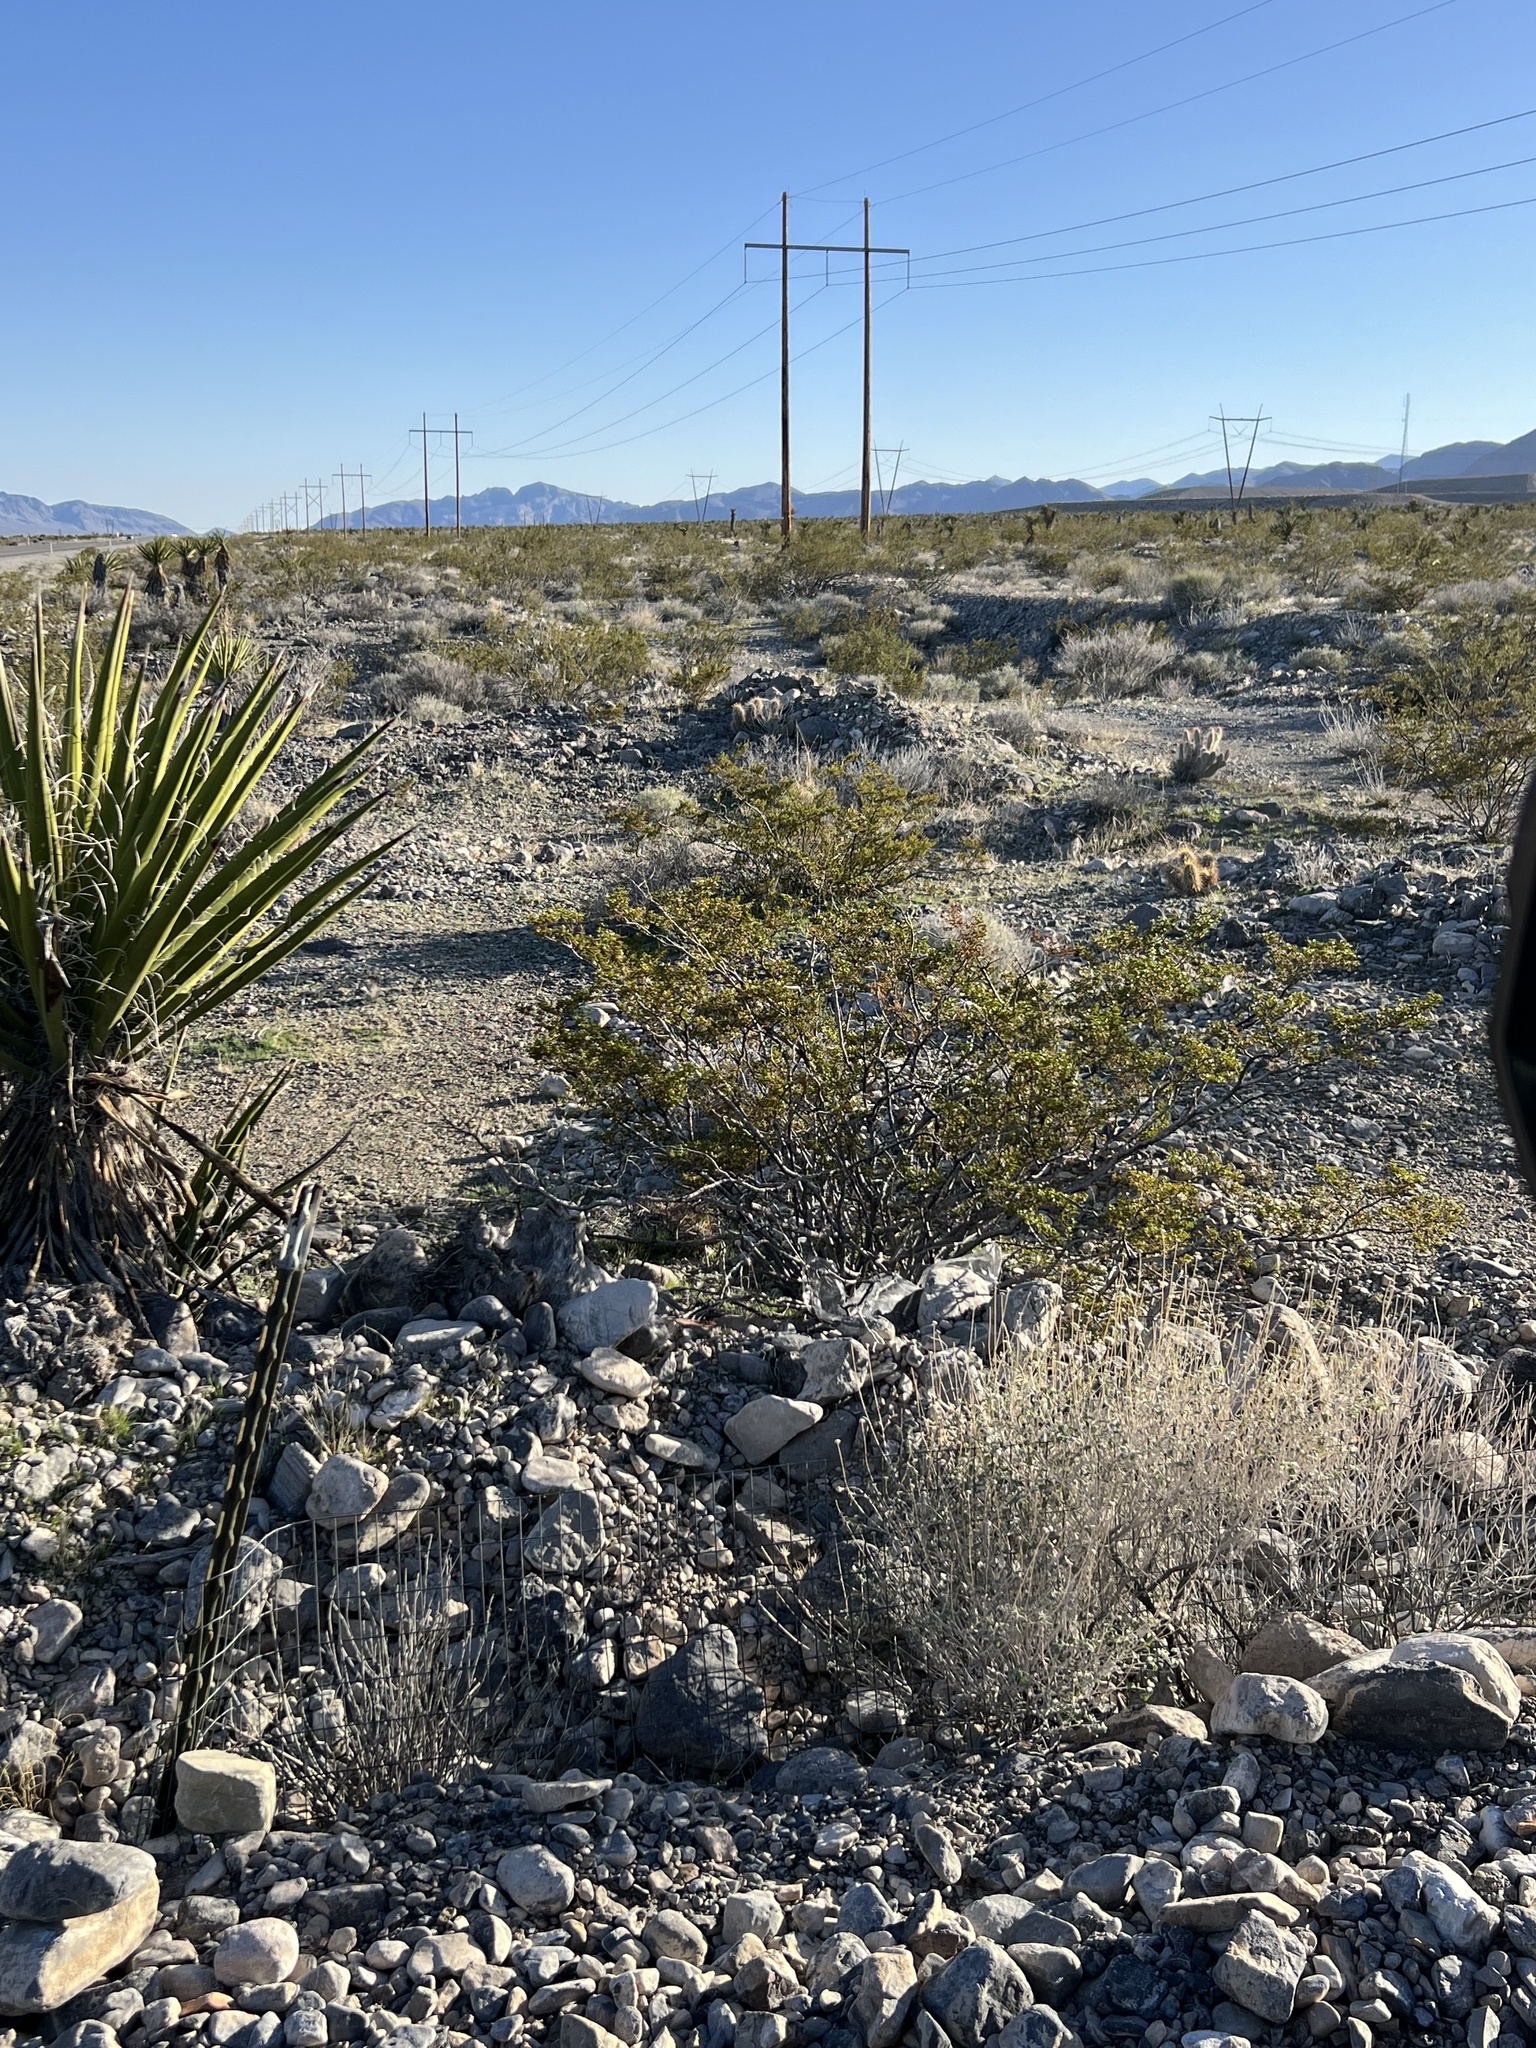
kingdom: Plantae
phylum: Tracheophyta
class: Magnoliopsida
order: Zygophyllales
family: Zygophyllaceae
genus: Larrea
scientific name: Larrea tridentata
